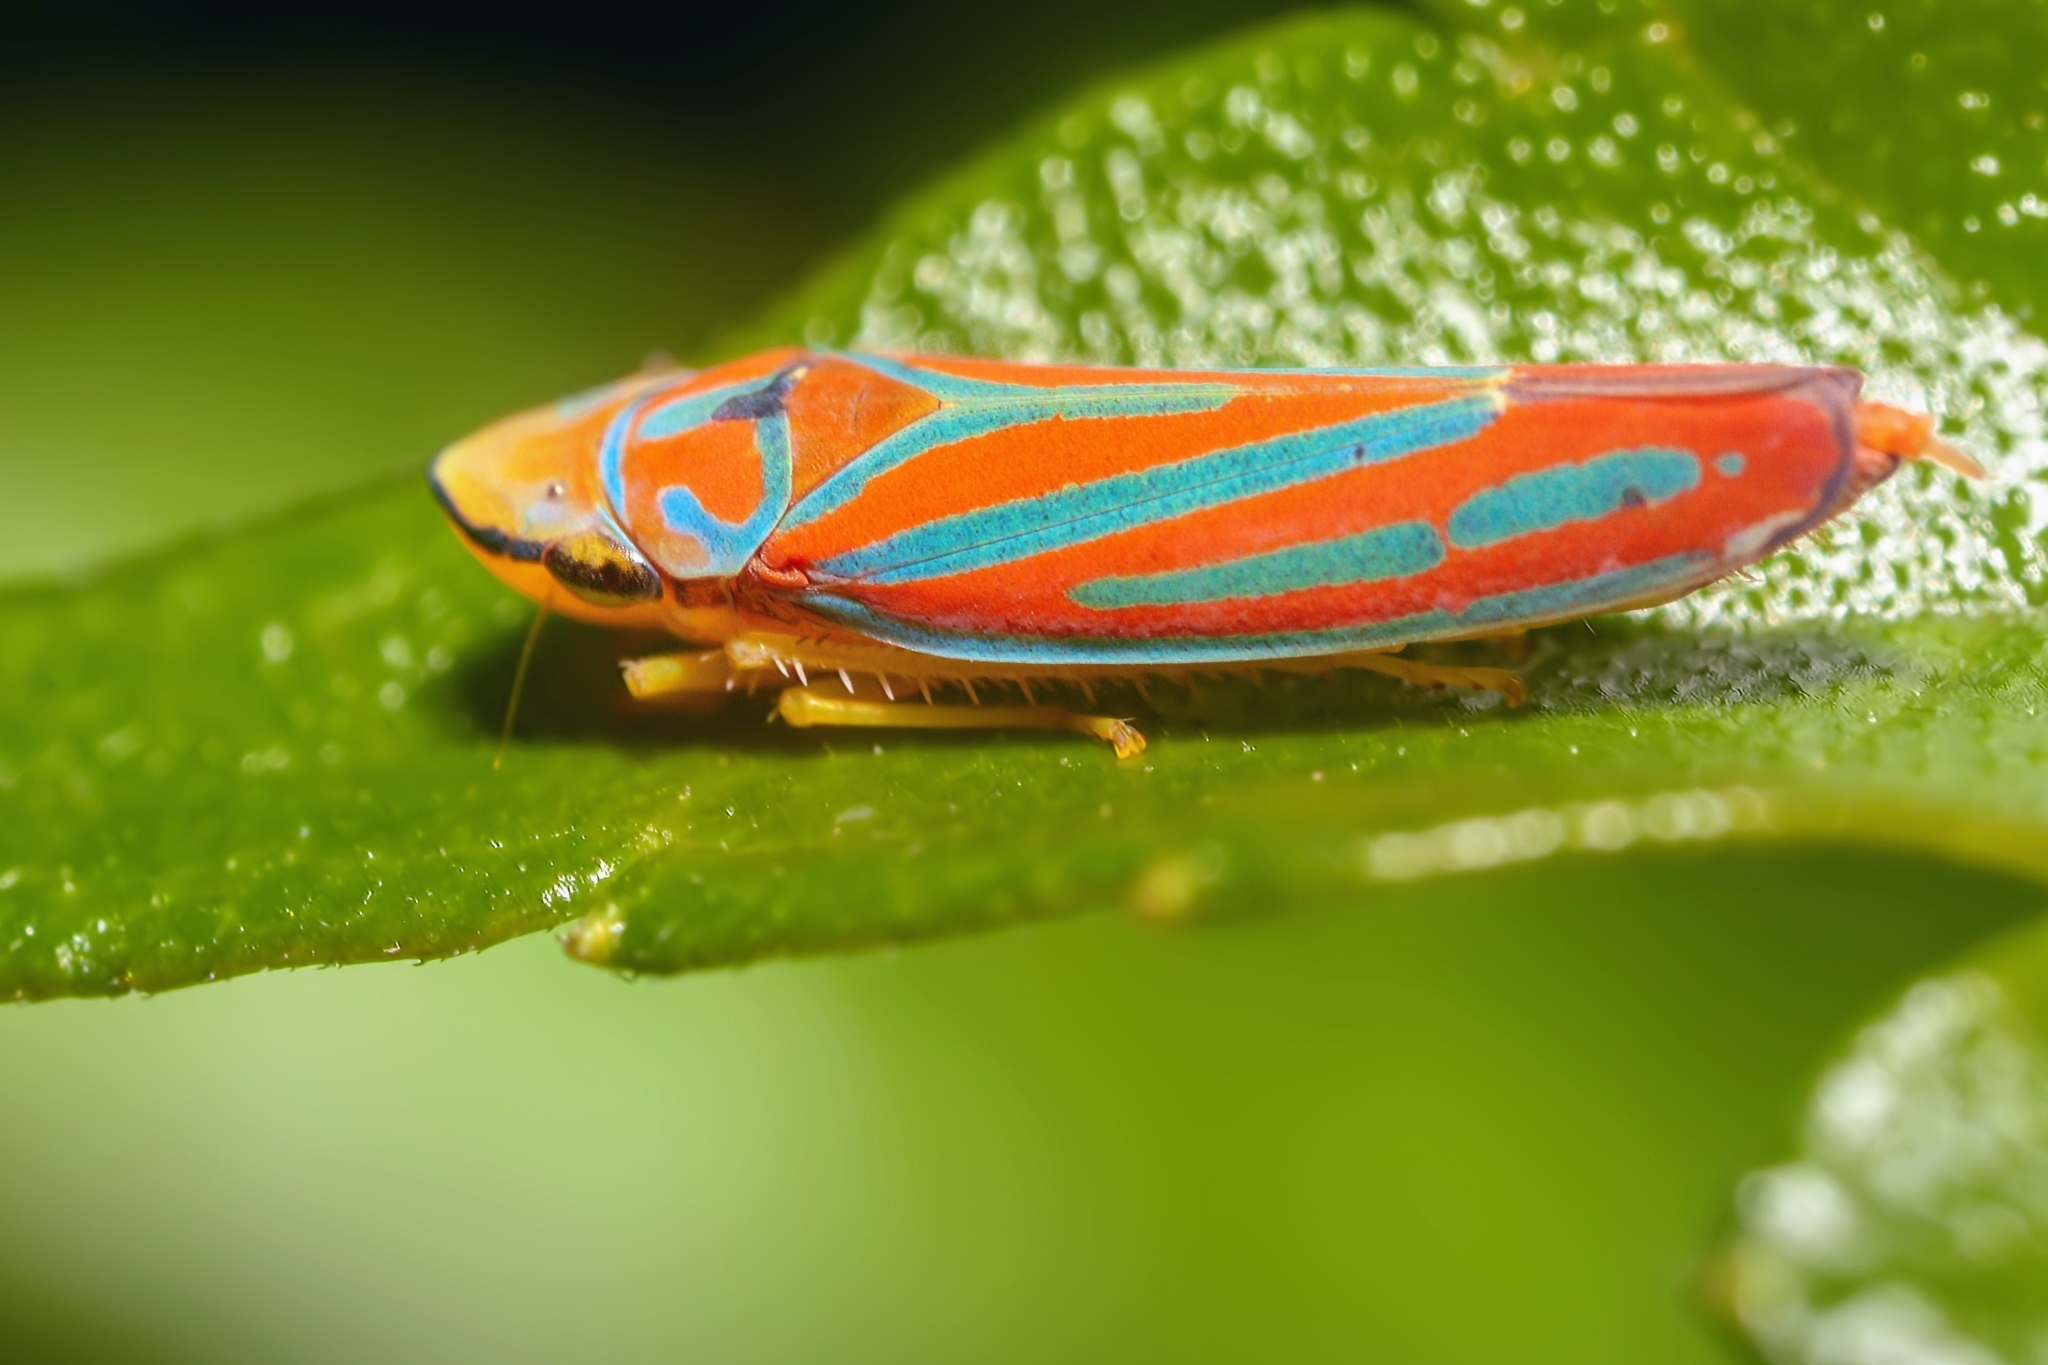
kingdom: Animalia
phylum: Arthropoda
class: Insecta
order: Hemiptera
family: Cicadellidae
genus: Graphocephala
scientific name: Graphocephala coccinea
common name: Candy-striped leafhopper
